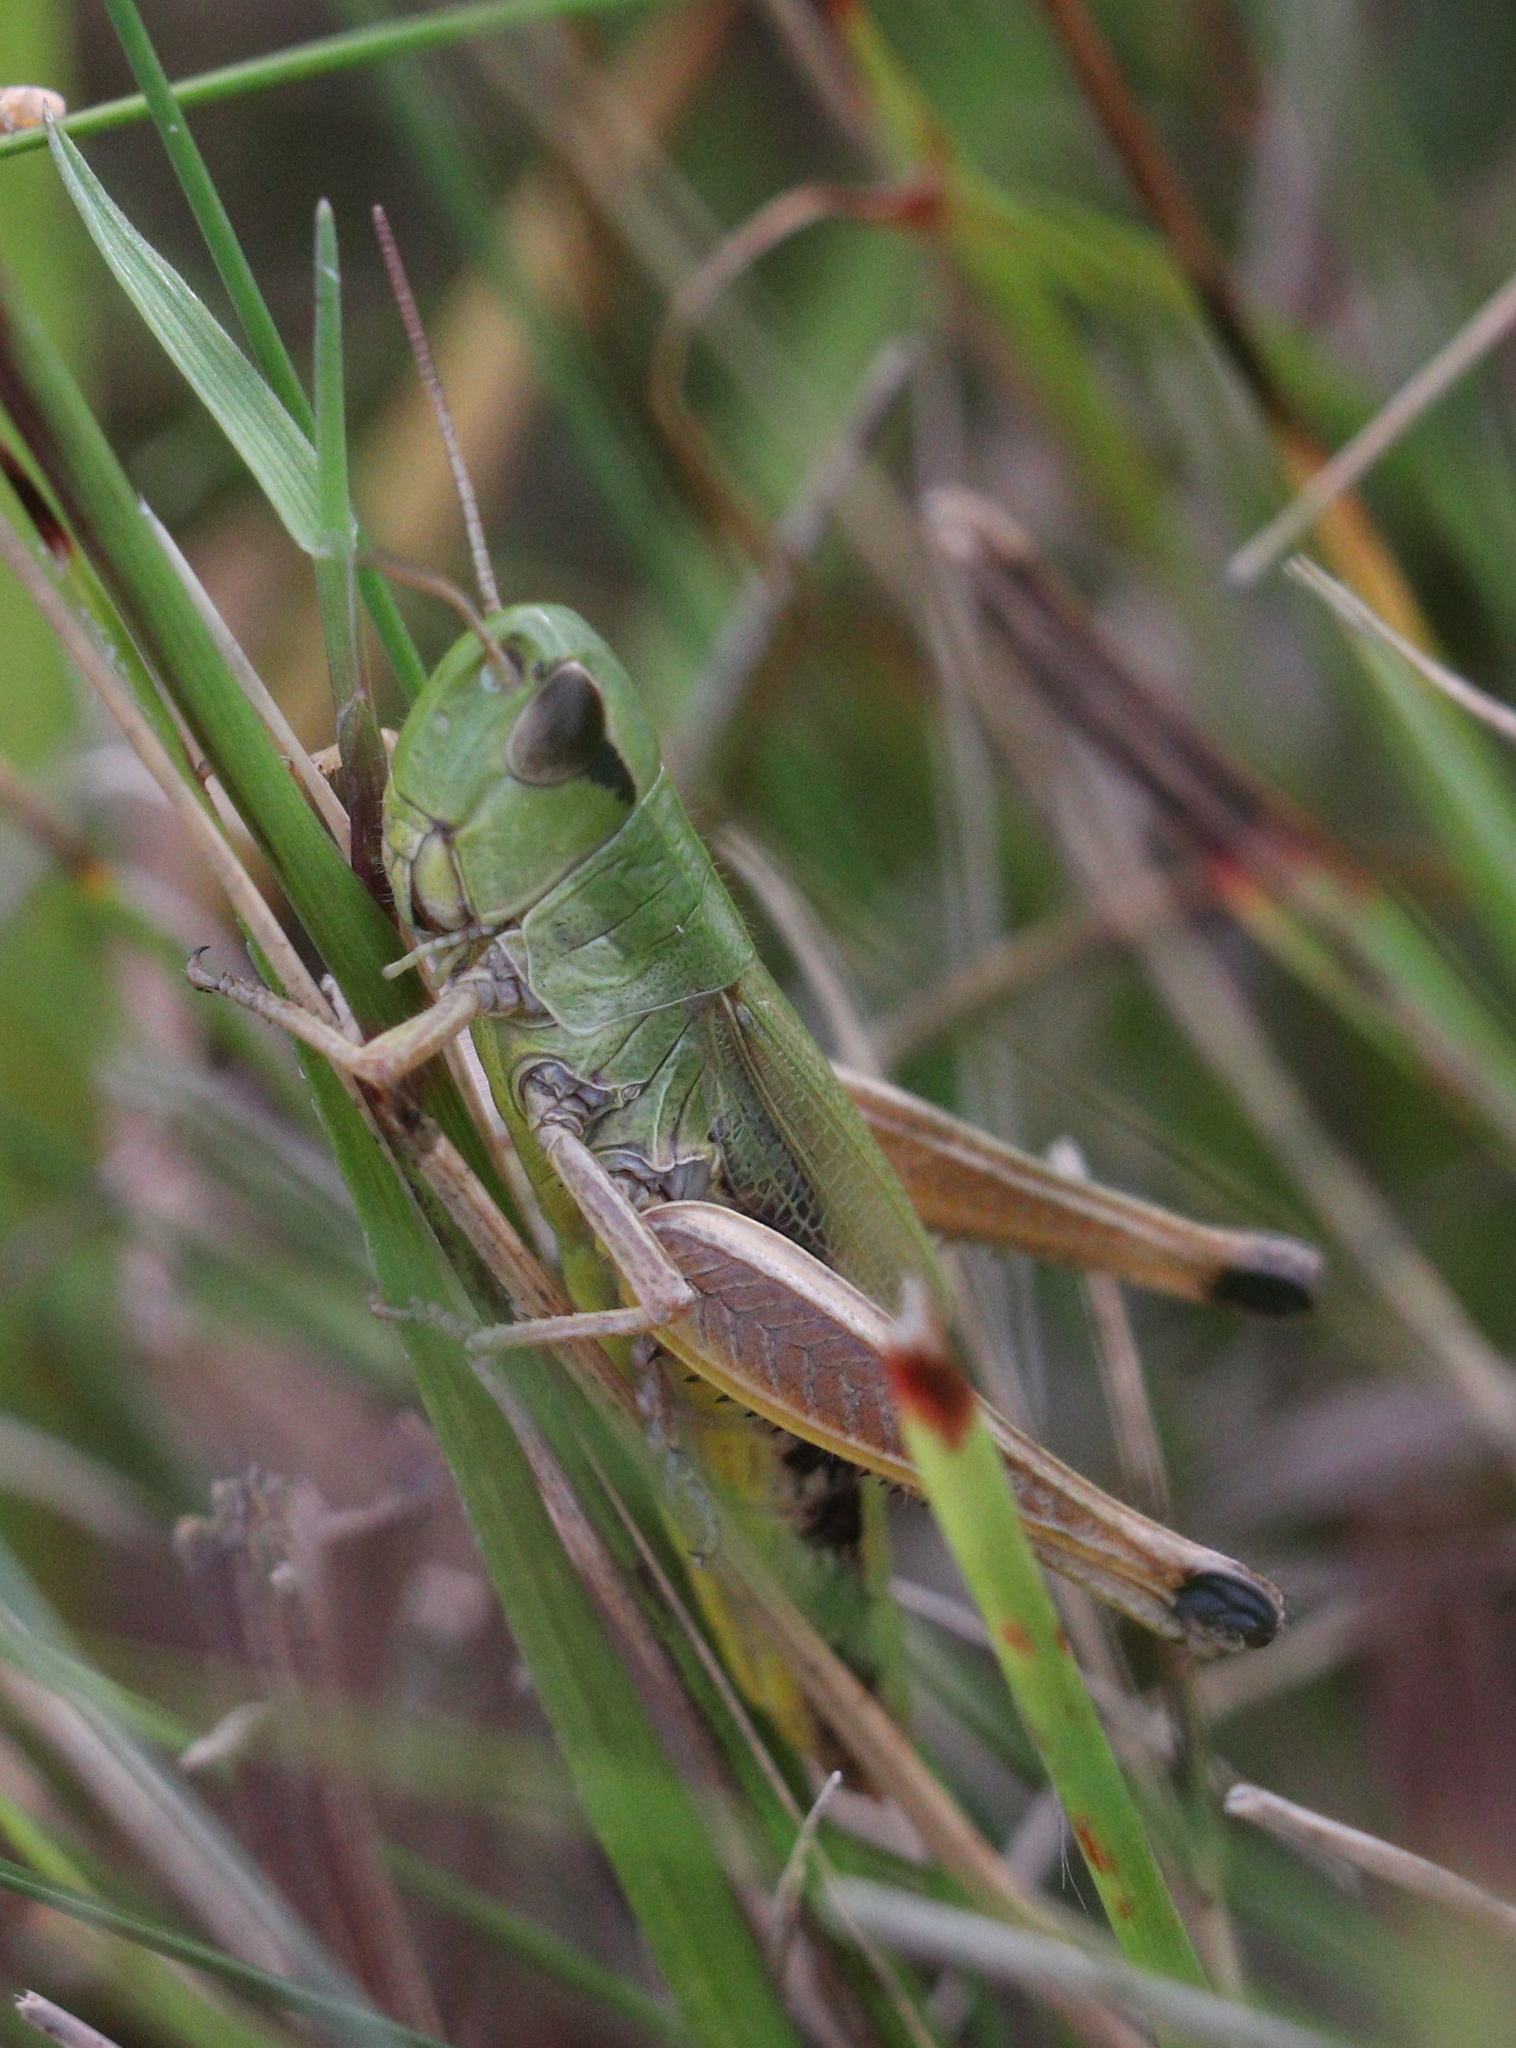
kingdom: Animalia
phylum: Arthropoda
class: Insecta
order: Orthoptera
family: Acrididae
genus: Pseudochorthippus
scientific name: Pseudochorthippus parallelus
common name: Meadow grasshopper
